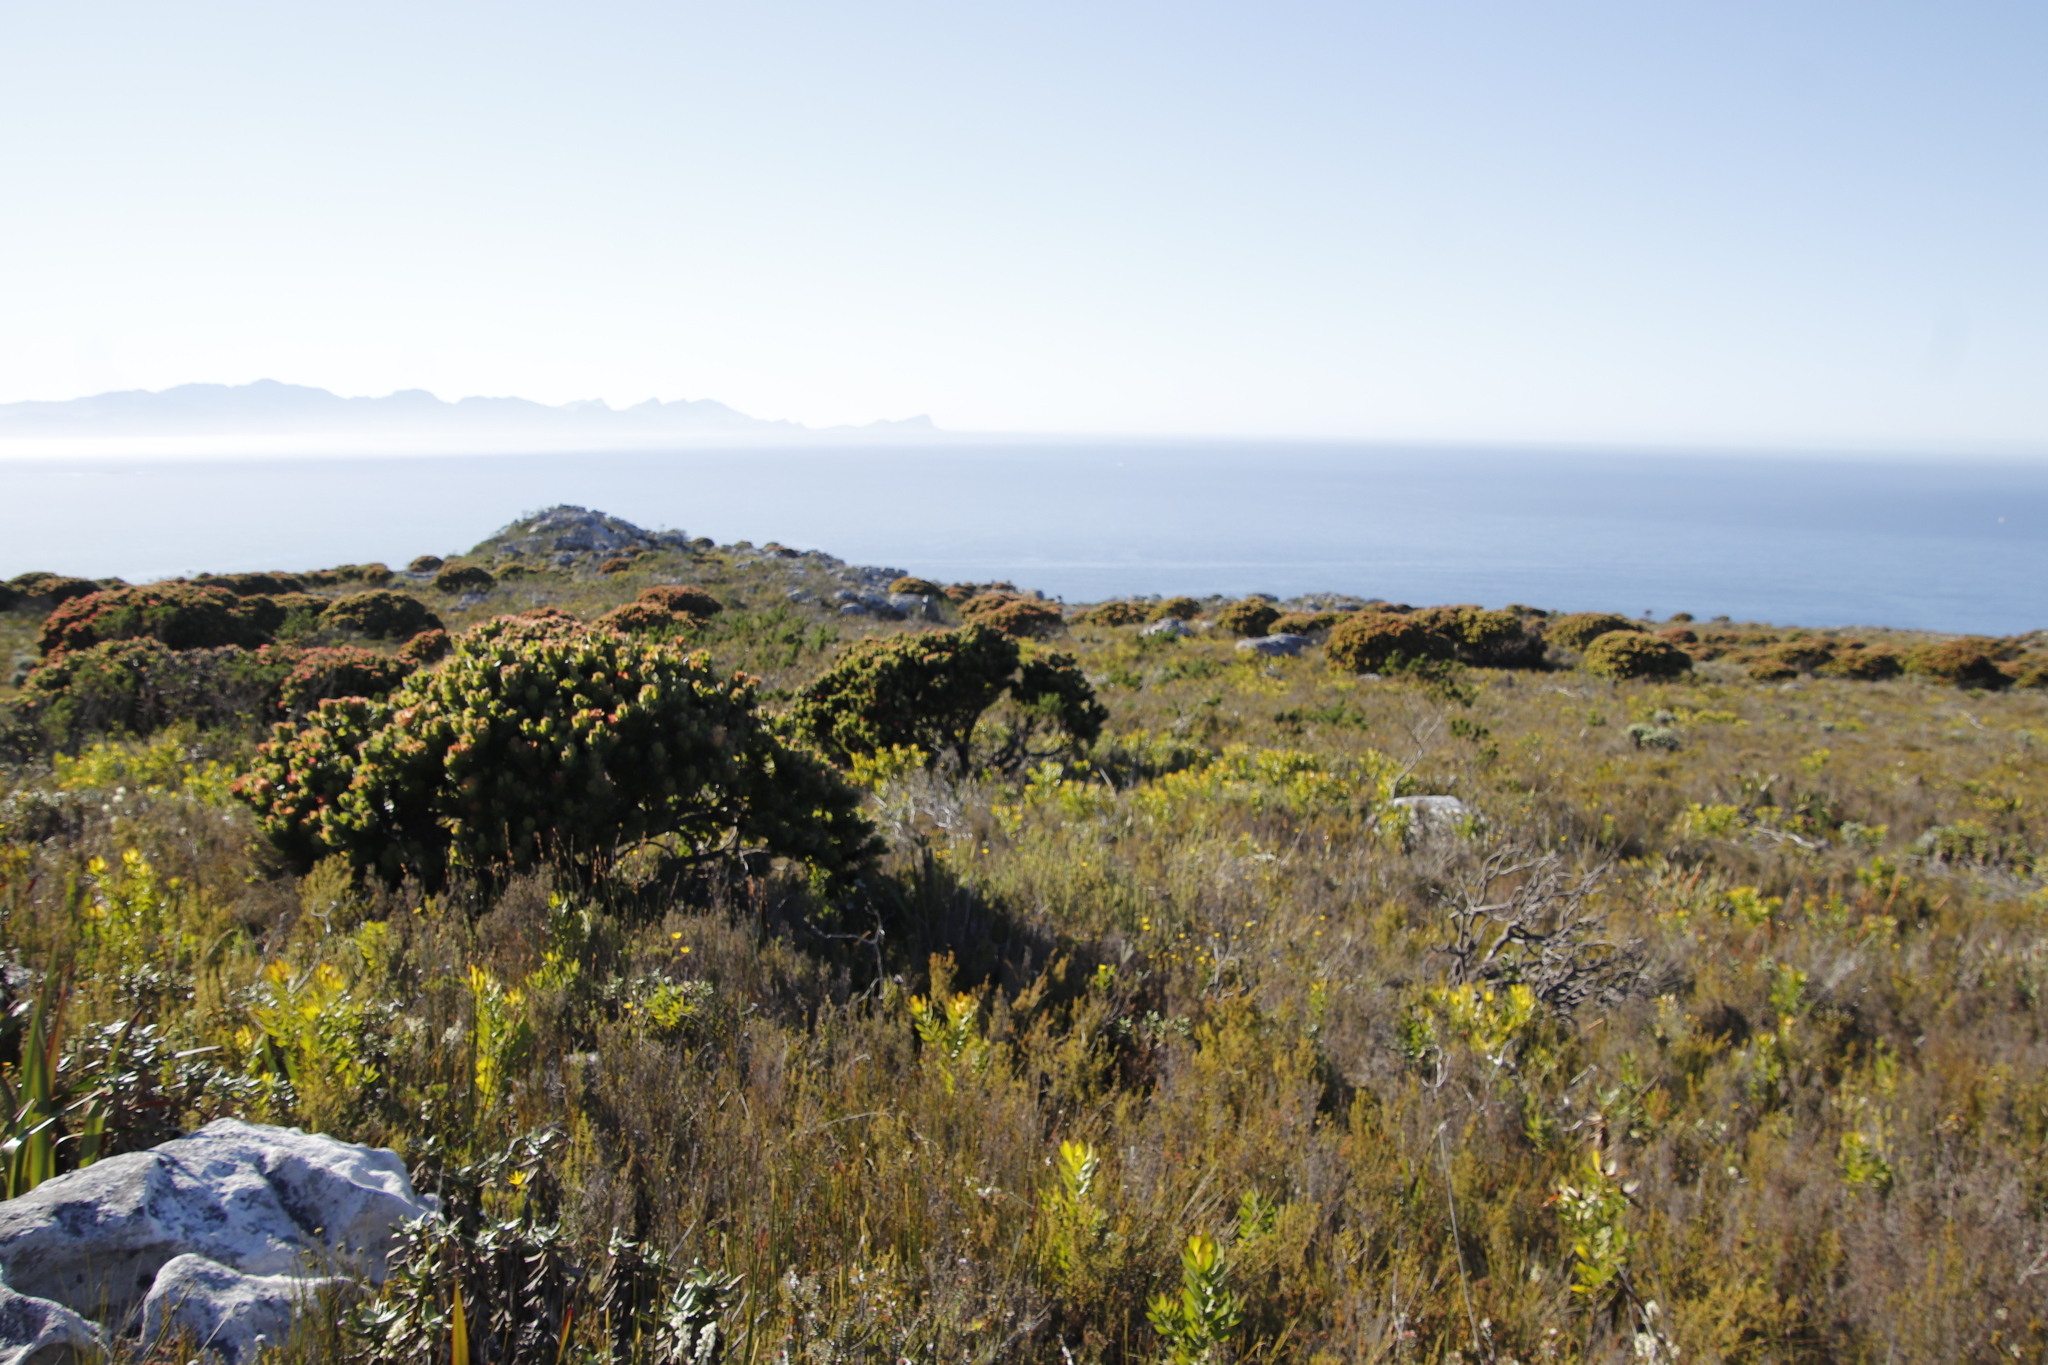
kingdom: Plantae
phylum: Tracheophyta
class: Magnoliopsida
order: Proteales
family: Proteaceae
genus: Mimetes
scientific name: Mimetes fimbriifolius
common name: Fringed bottlebrush
